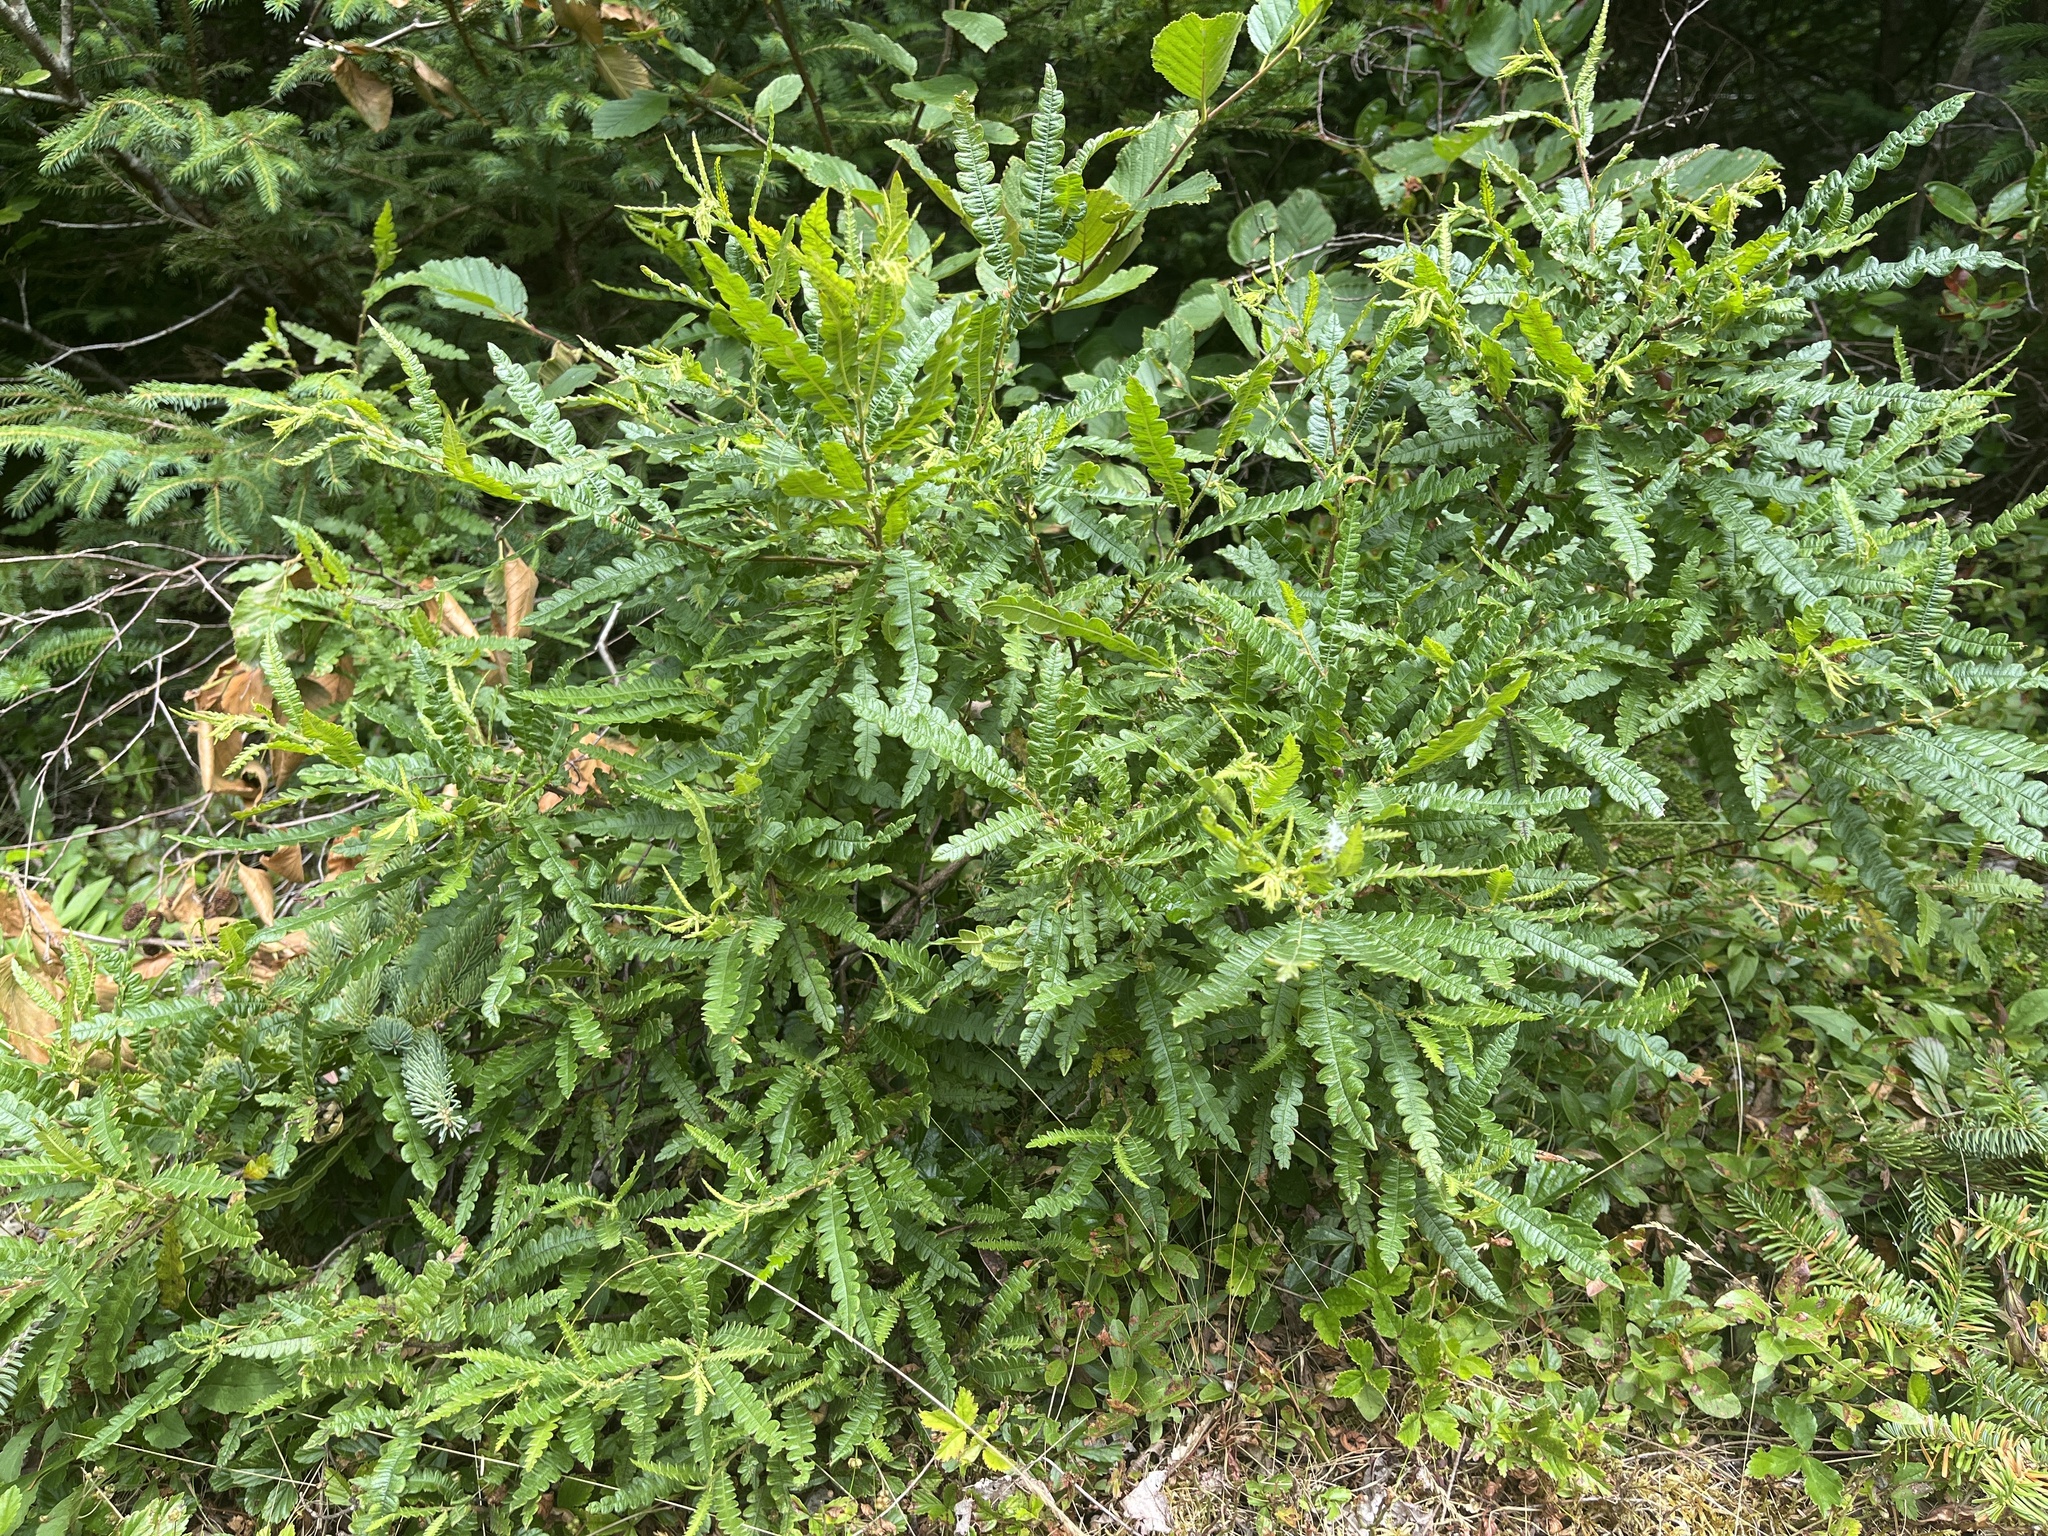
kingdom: Plantae
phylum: Tracheophyta
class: Magnoliopsida
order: Fagales
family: Myricaceae
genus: Comptonia
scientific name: Comptonia peregrina
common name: Sweet-fern
